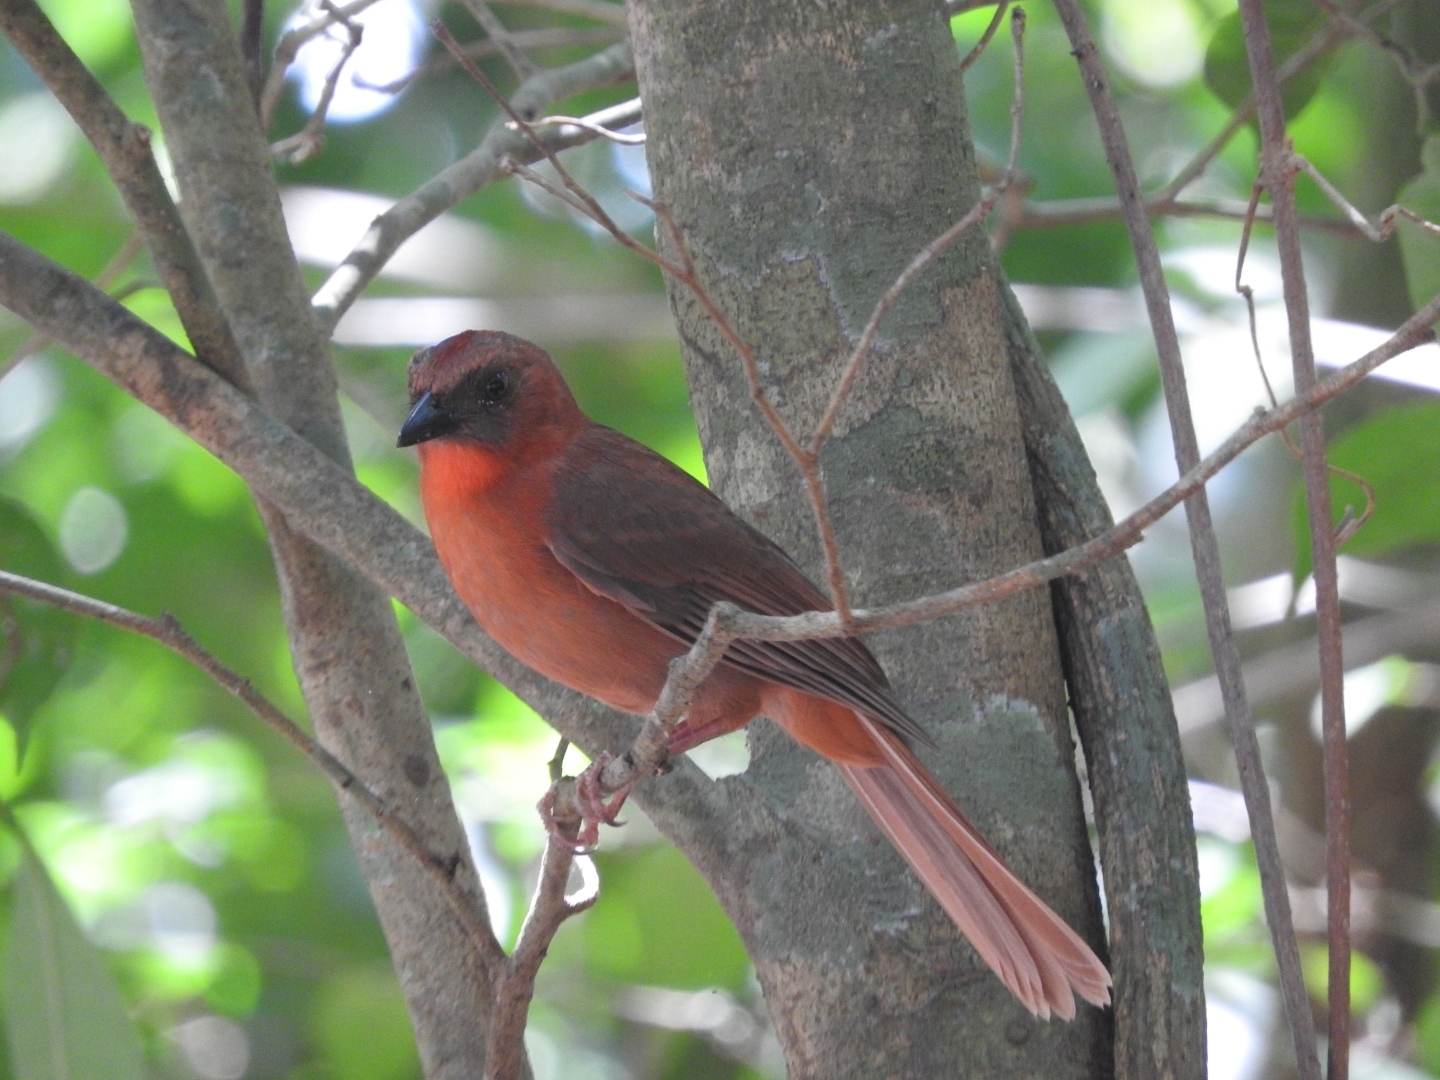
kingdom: Animalia
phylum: Chordata
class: Aves
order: Passeriformes
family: Cardinalidae
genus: Habia
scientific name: Habia fuscicauda
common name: Red-throated ant-tanager
